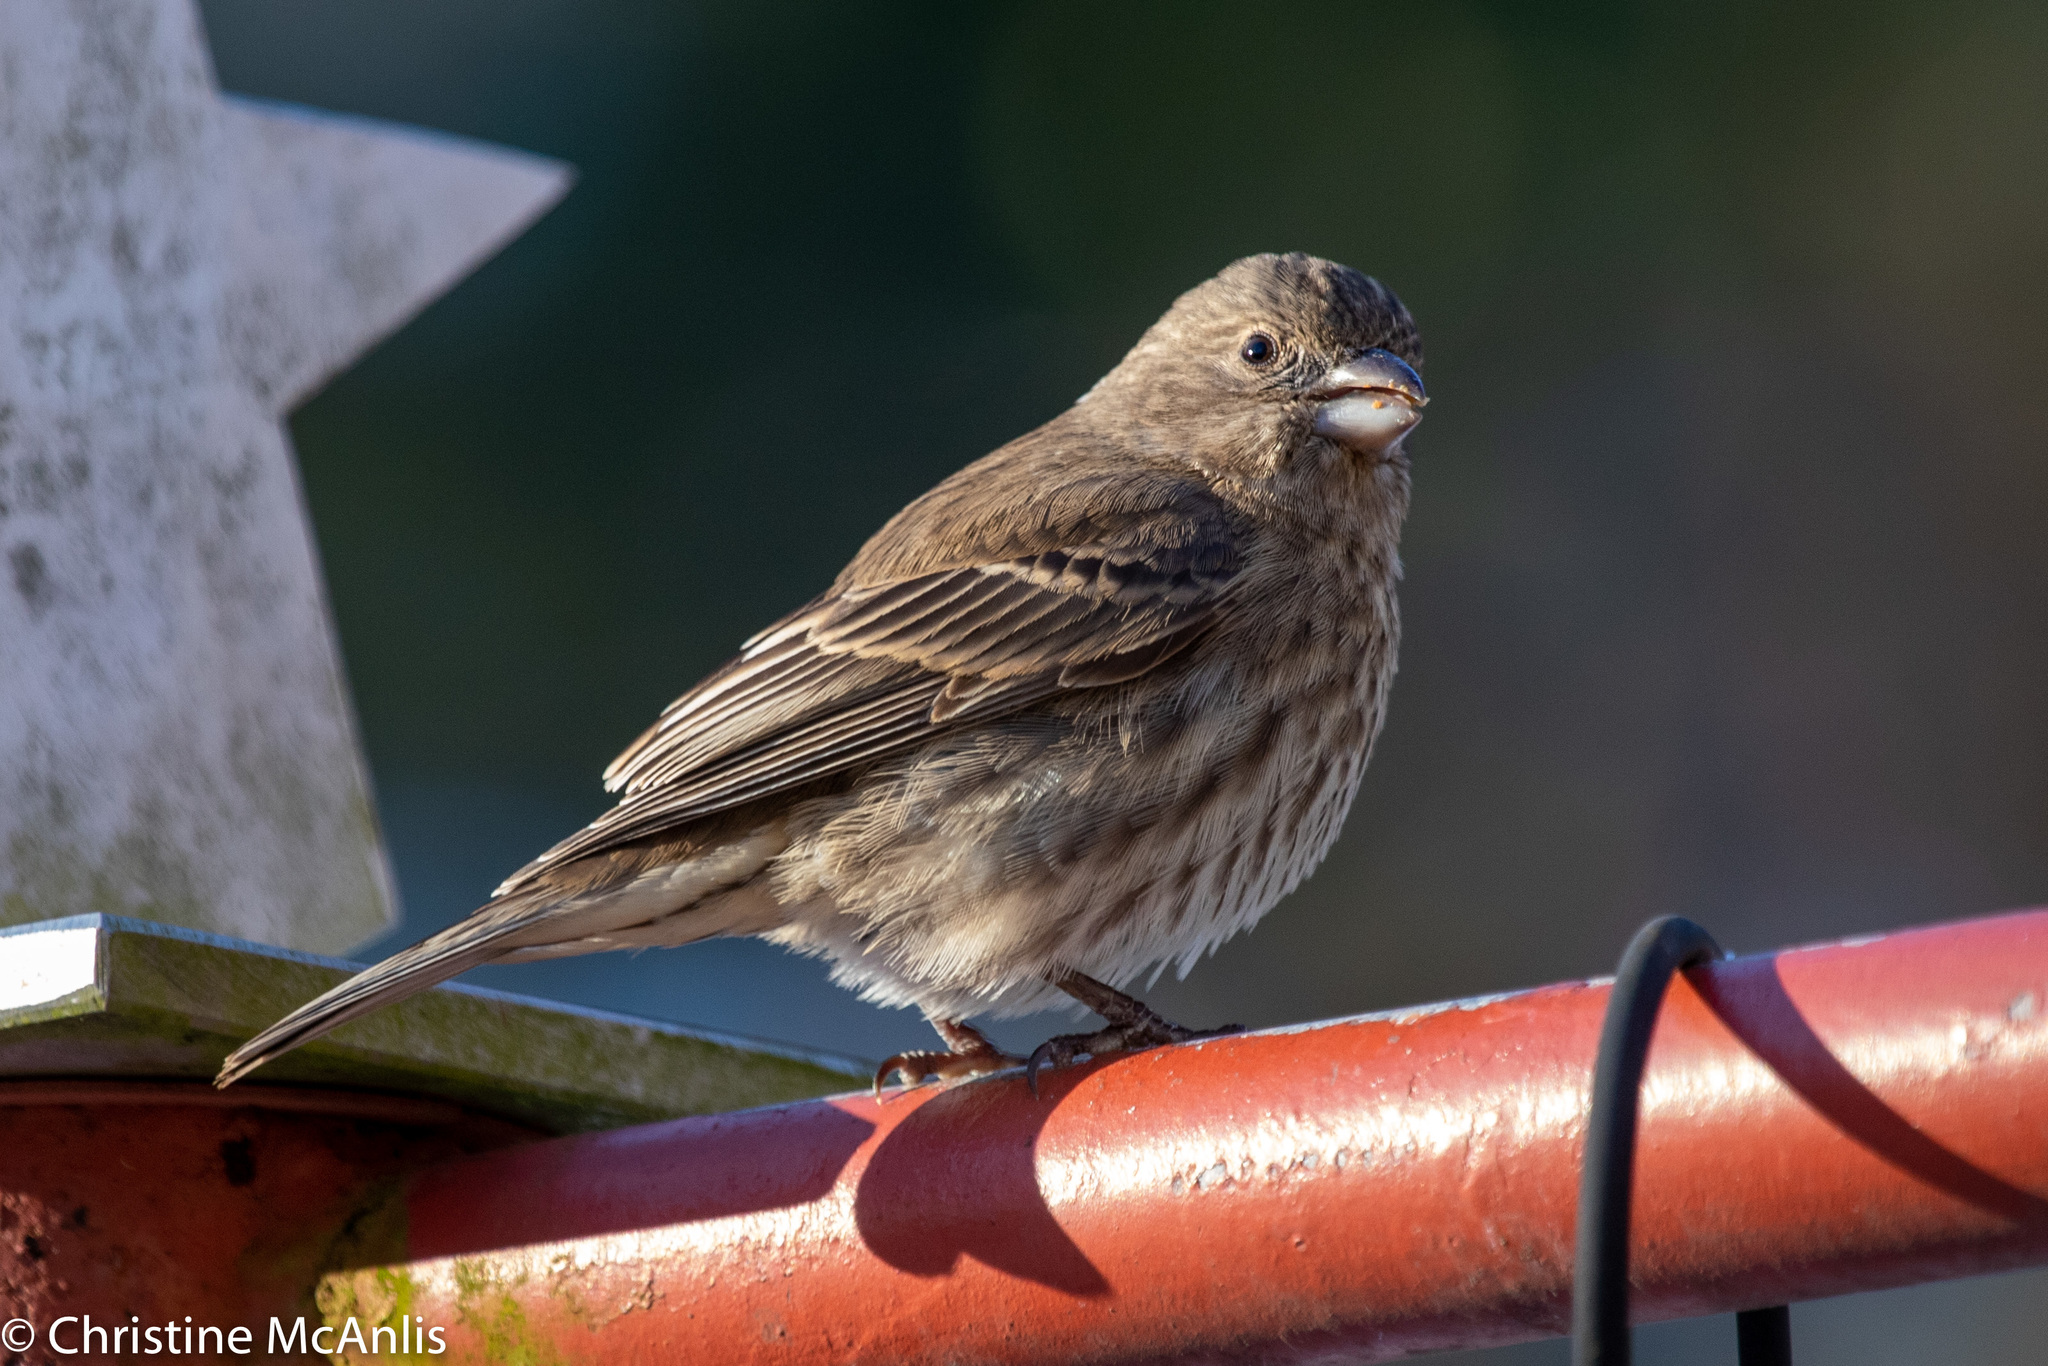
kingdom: Animalia
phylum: Chordata
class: Aves
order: Passeriformes
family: Fringillidae
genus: Haemorhous
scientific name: Haemorhous mexicanus
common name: House finch
